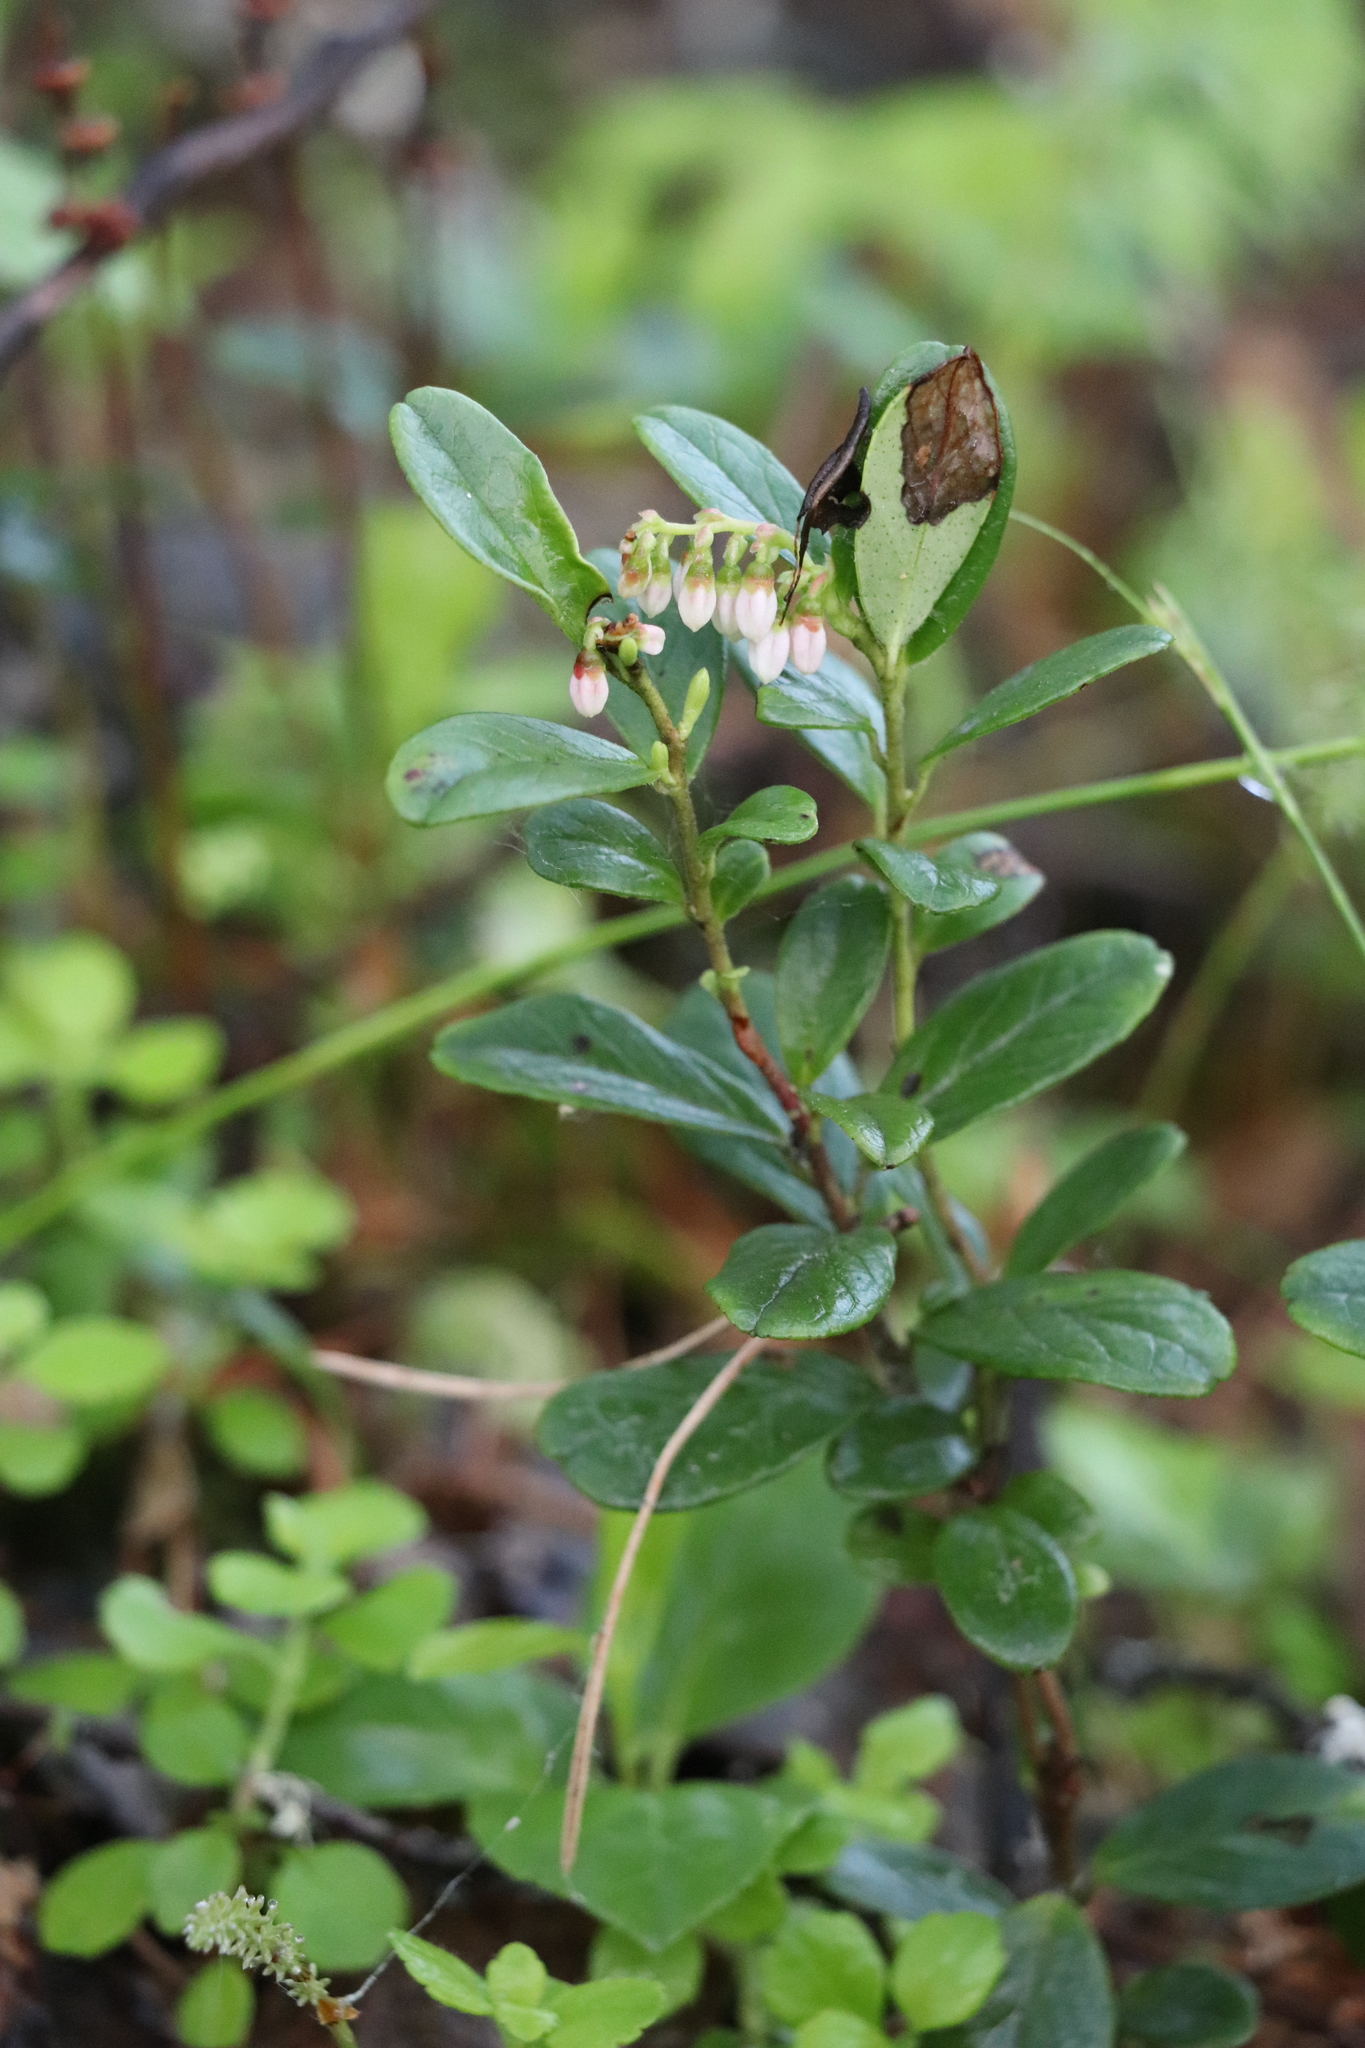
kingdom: Plantae
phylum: Tracheophyta
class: Magnoliopsida
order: Ericales
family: Ericaceae
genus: Vaccinium
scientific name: Vaccinium vitis-idaea
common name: Cowberry
